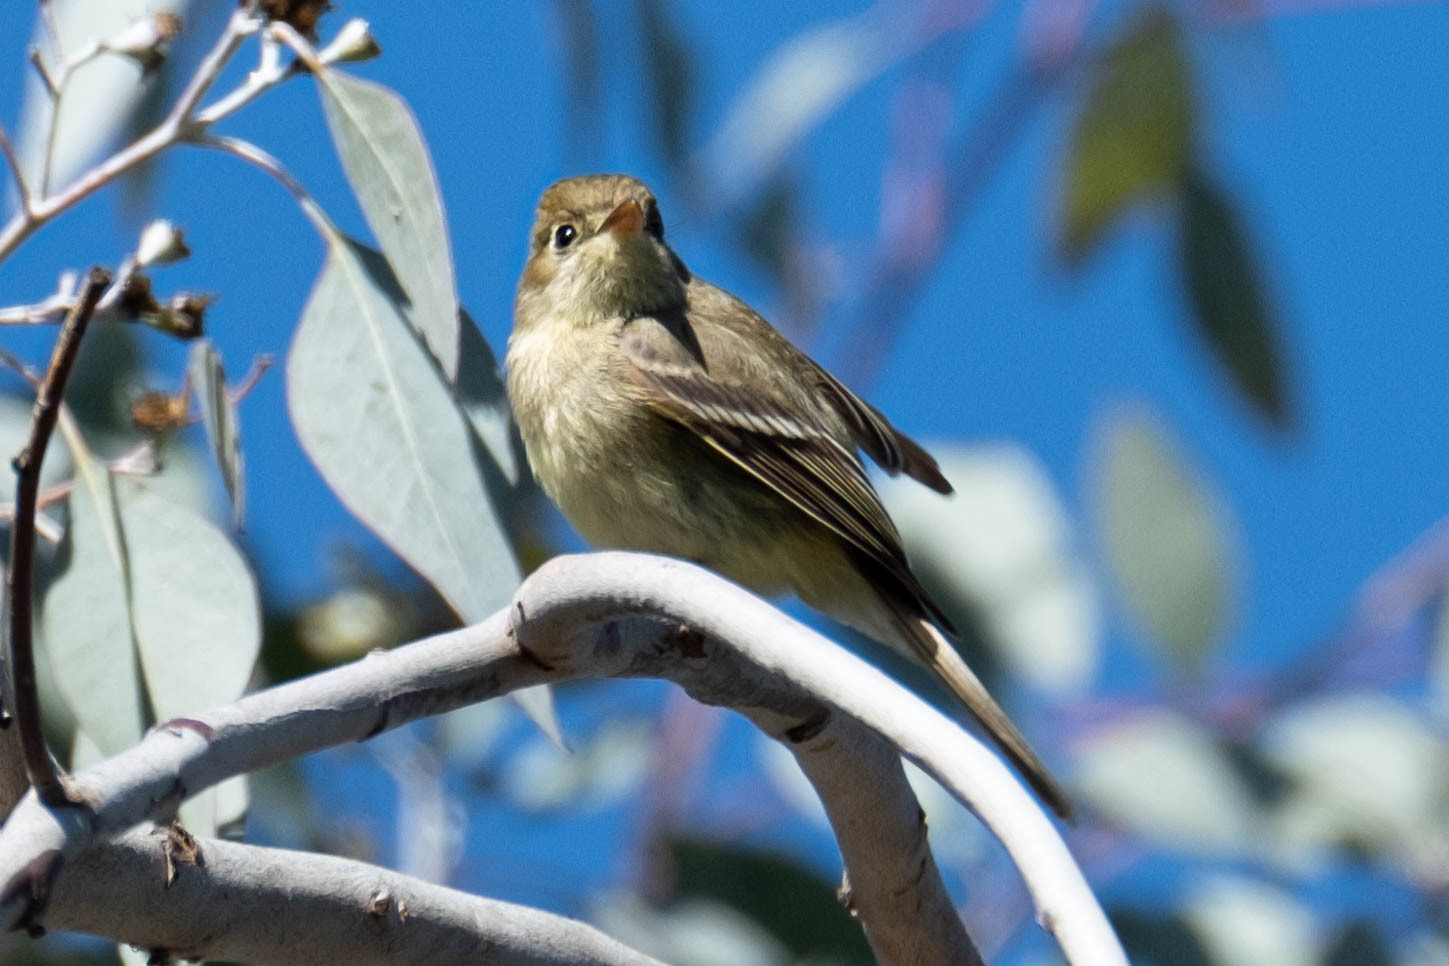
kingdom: Animalia
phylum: Chordata
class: Aves
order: Passeriformes
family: Tyrannidae
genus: Empidonax
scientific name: Empidonax difficilis
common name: Pacific-slope flycatcher
